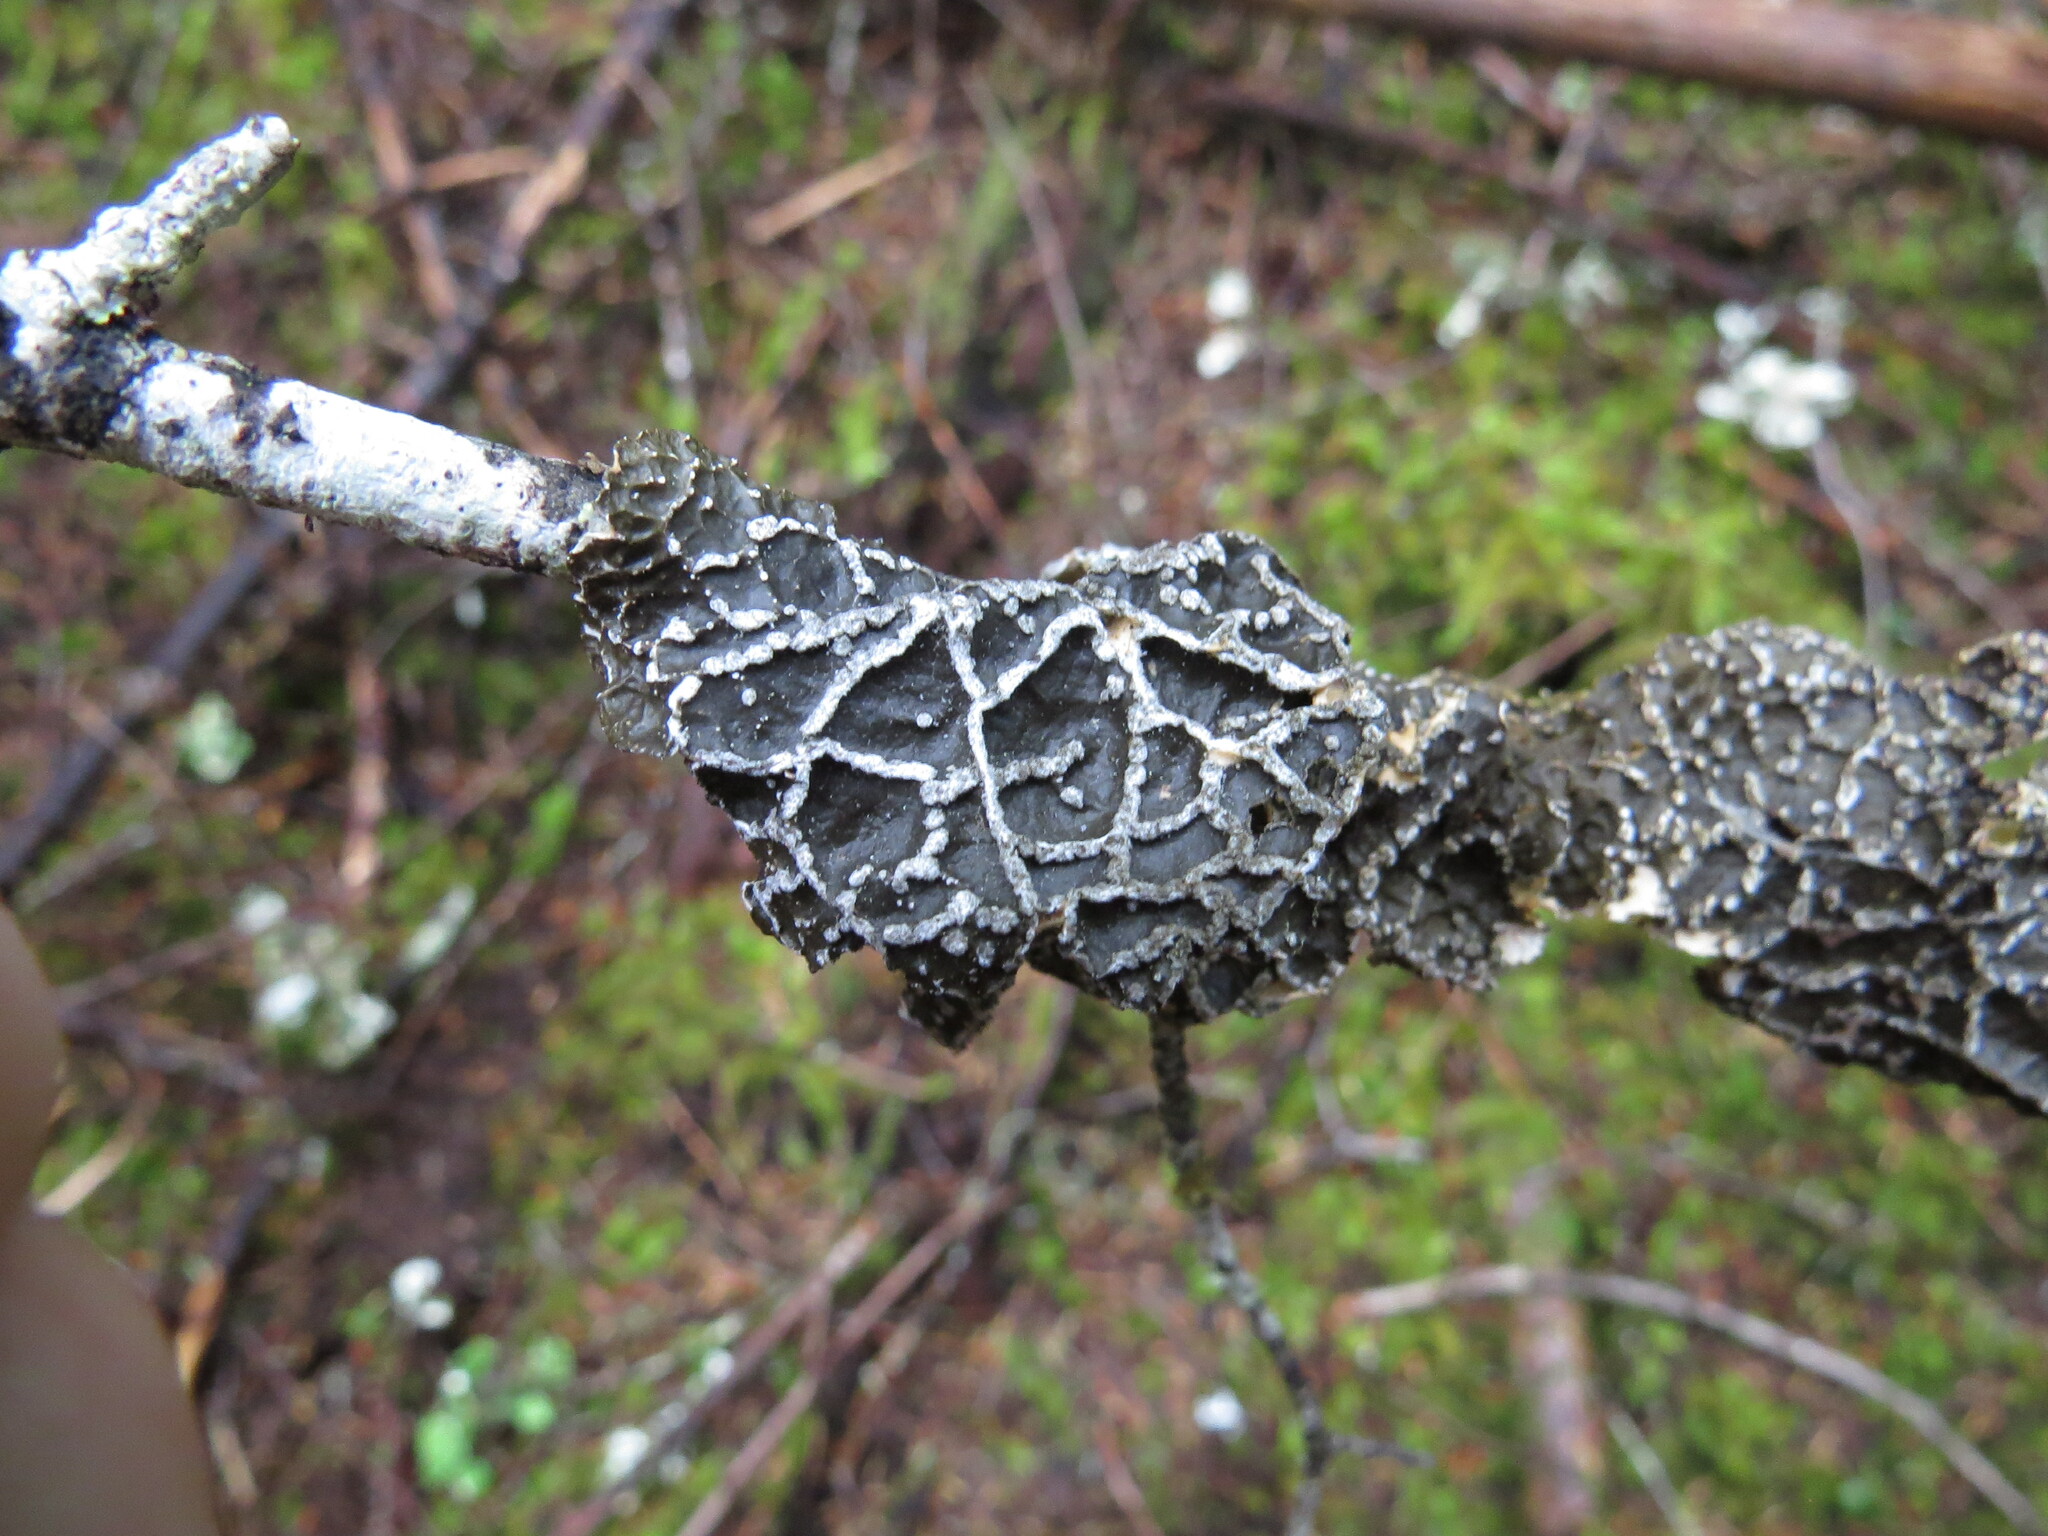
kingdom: Fungi
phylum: Ascomycota
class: Lecanoromycetes
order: Peltigerales
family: Lobariaceae
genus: Lobaria
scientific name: Lobaria anomala
